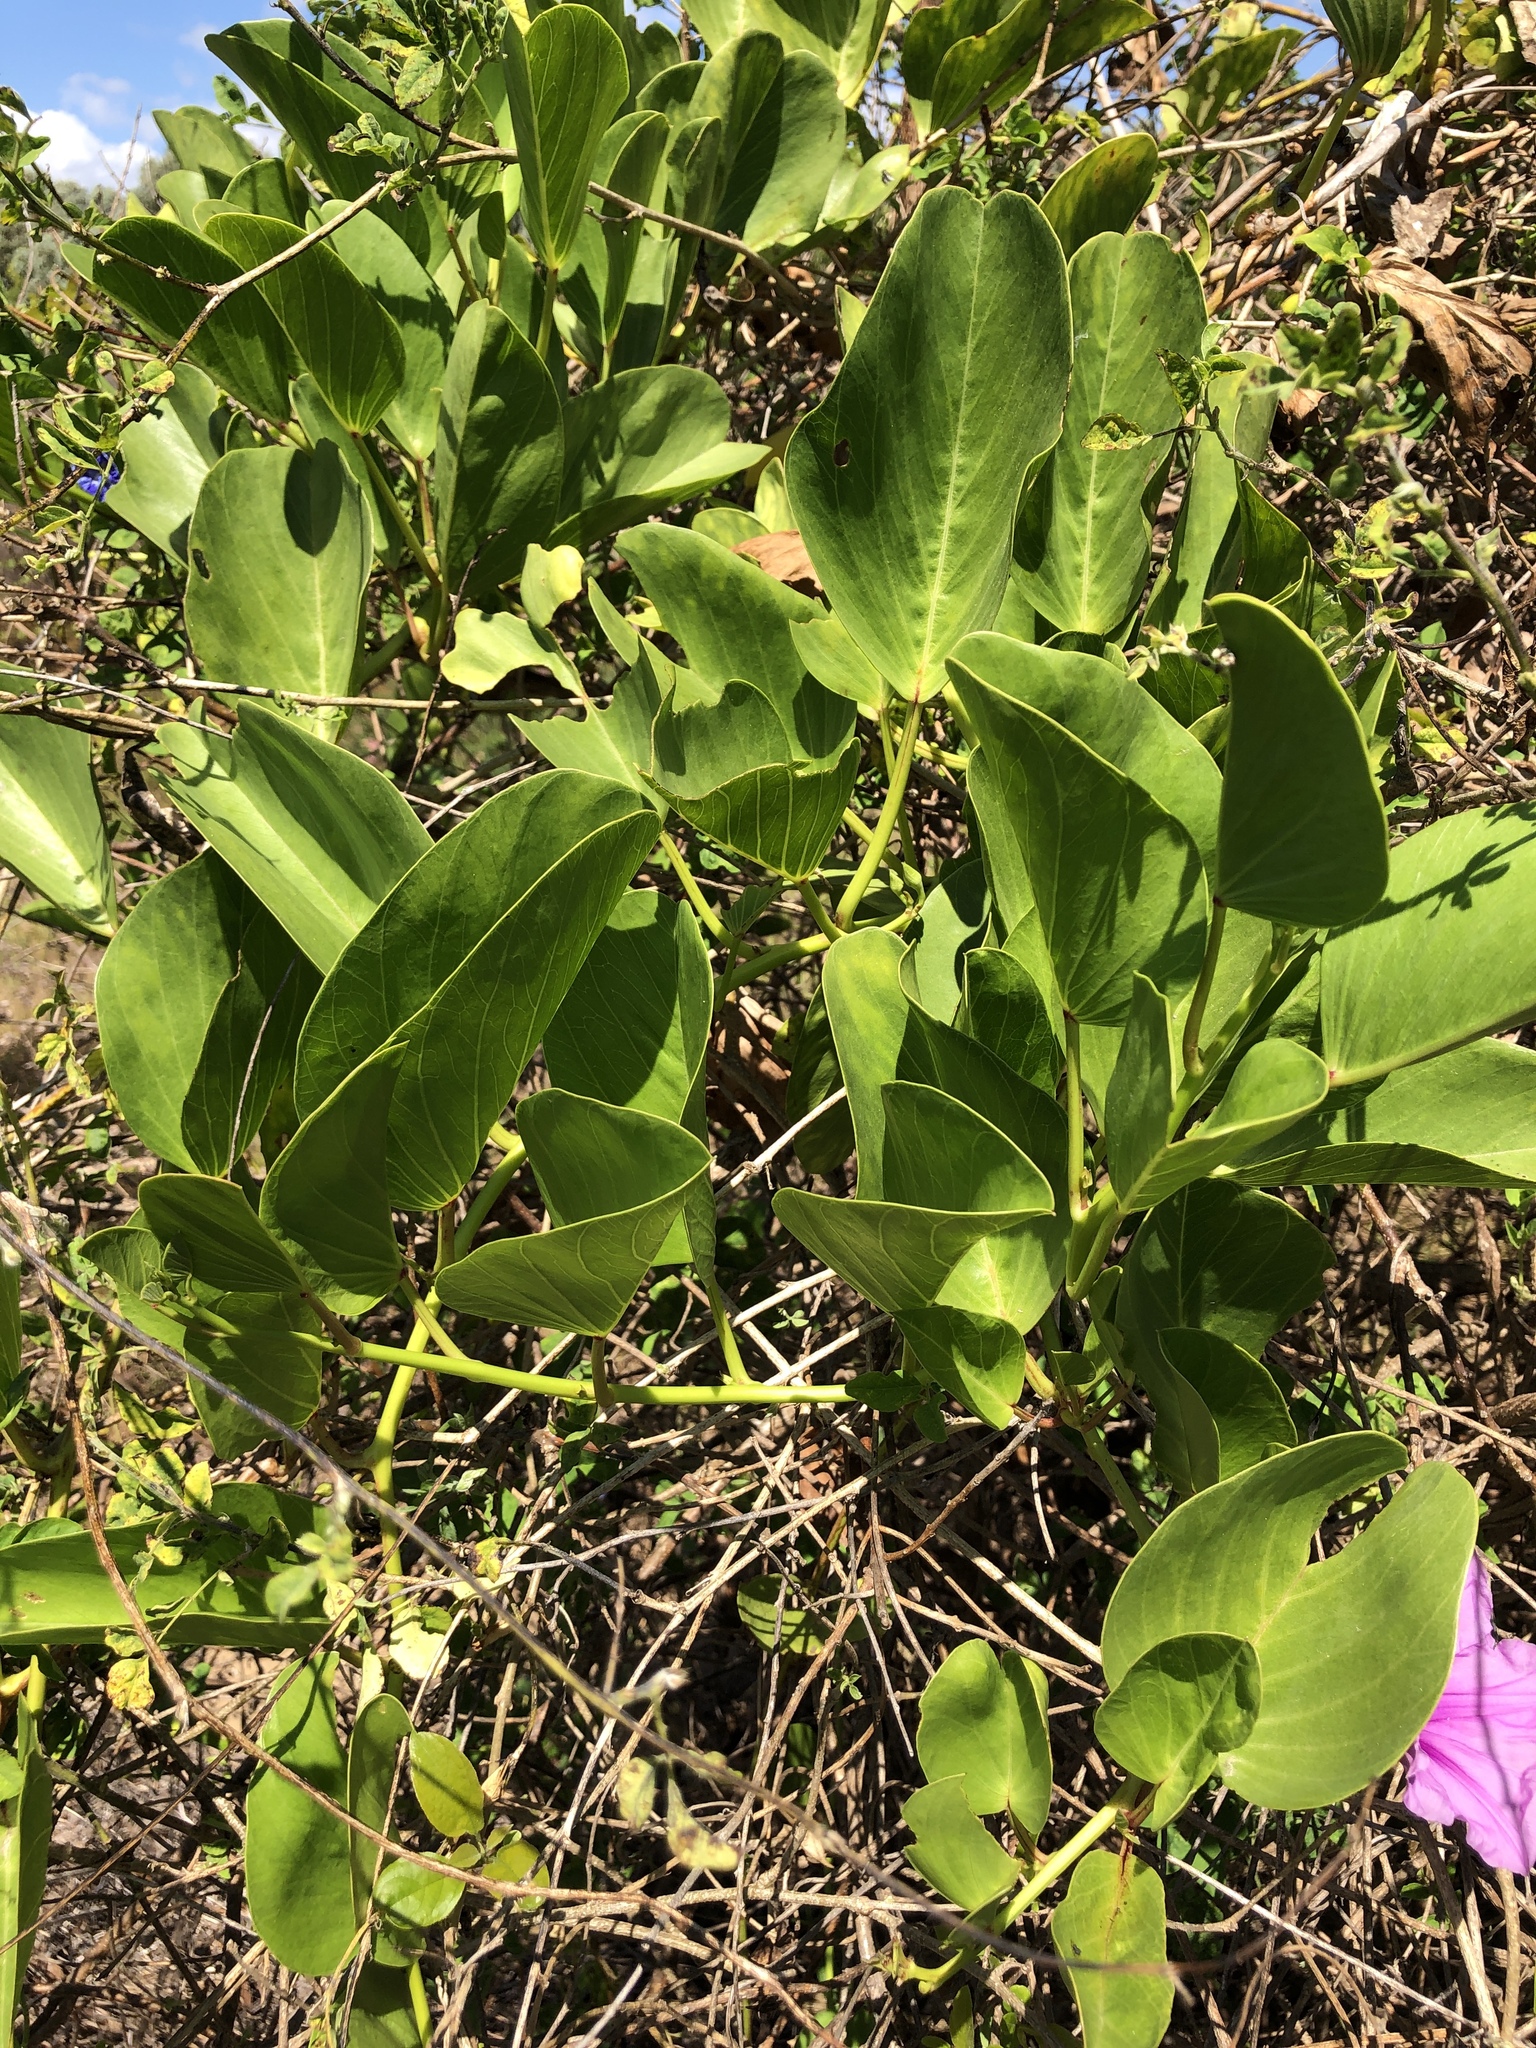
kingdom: Plantae
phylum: Tracheophyta
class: Magnoliopsida
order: Solanales
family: Convolvulaceae
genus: Ipomoea
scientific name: Ipomoea pes-caprae
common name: Beach morning glory
